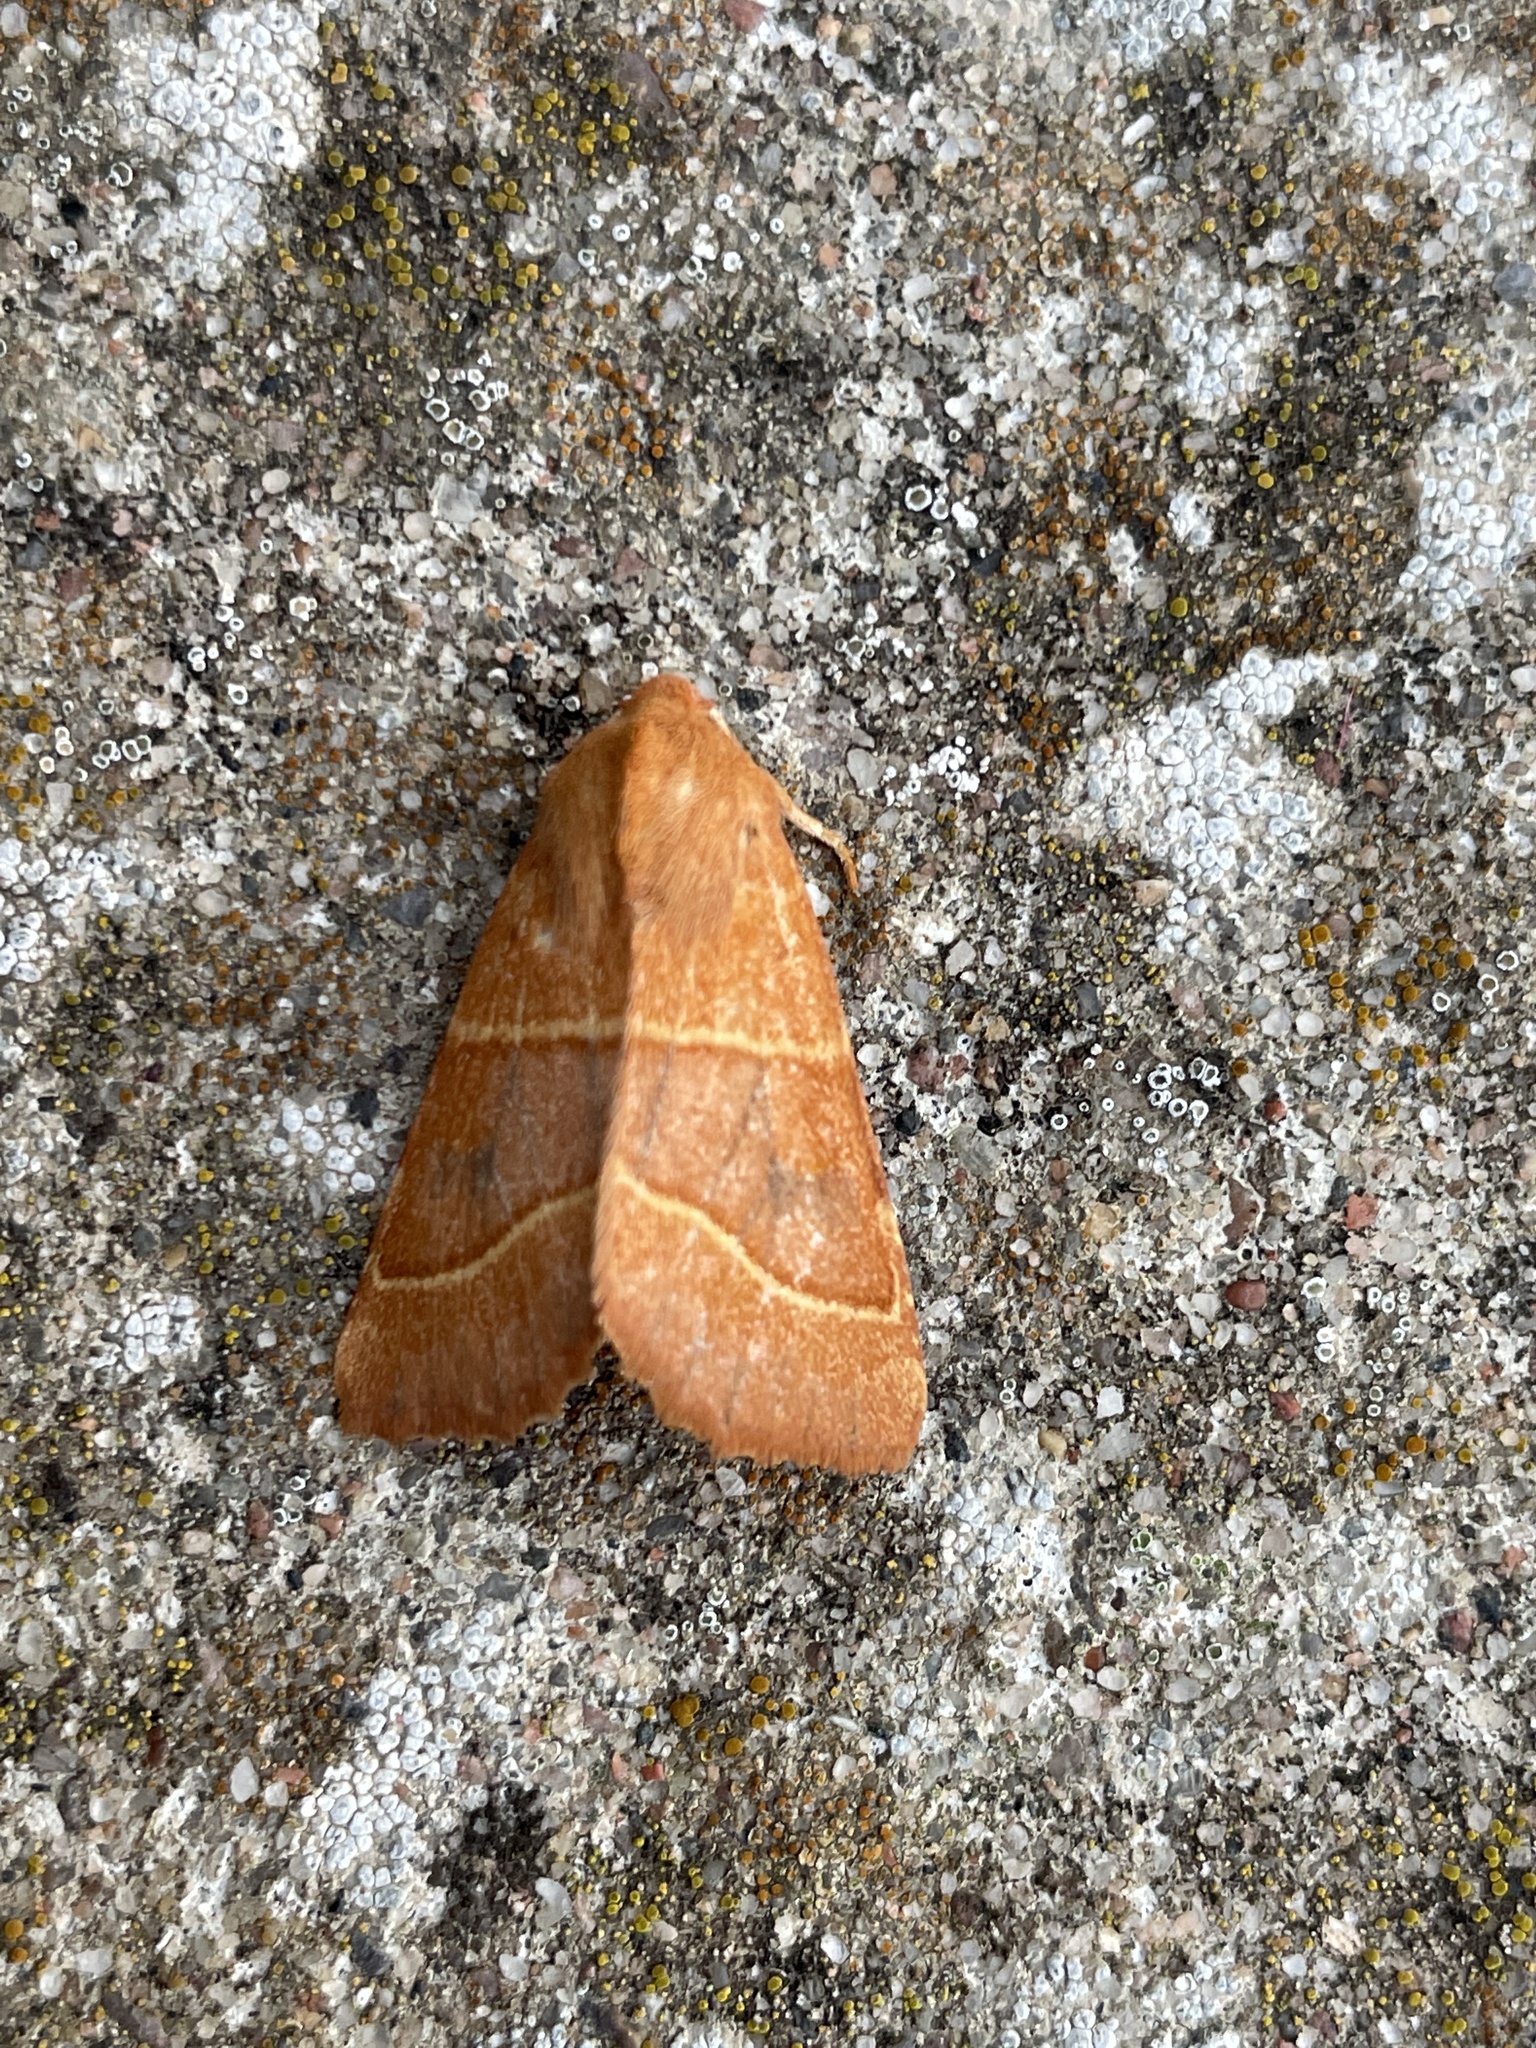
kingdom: Animalia
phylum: Arthropoda
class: Insecta
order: Lepidoptera
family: Noctuidae
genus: Atethmia
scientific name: Atethmia centrago
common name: Centre-barred sallow
